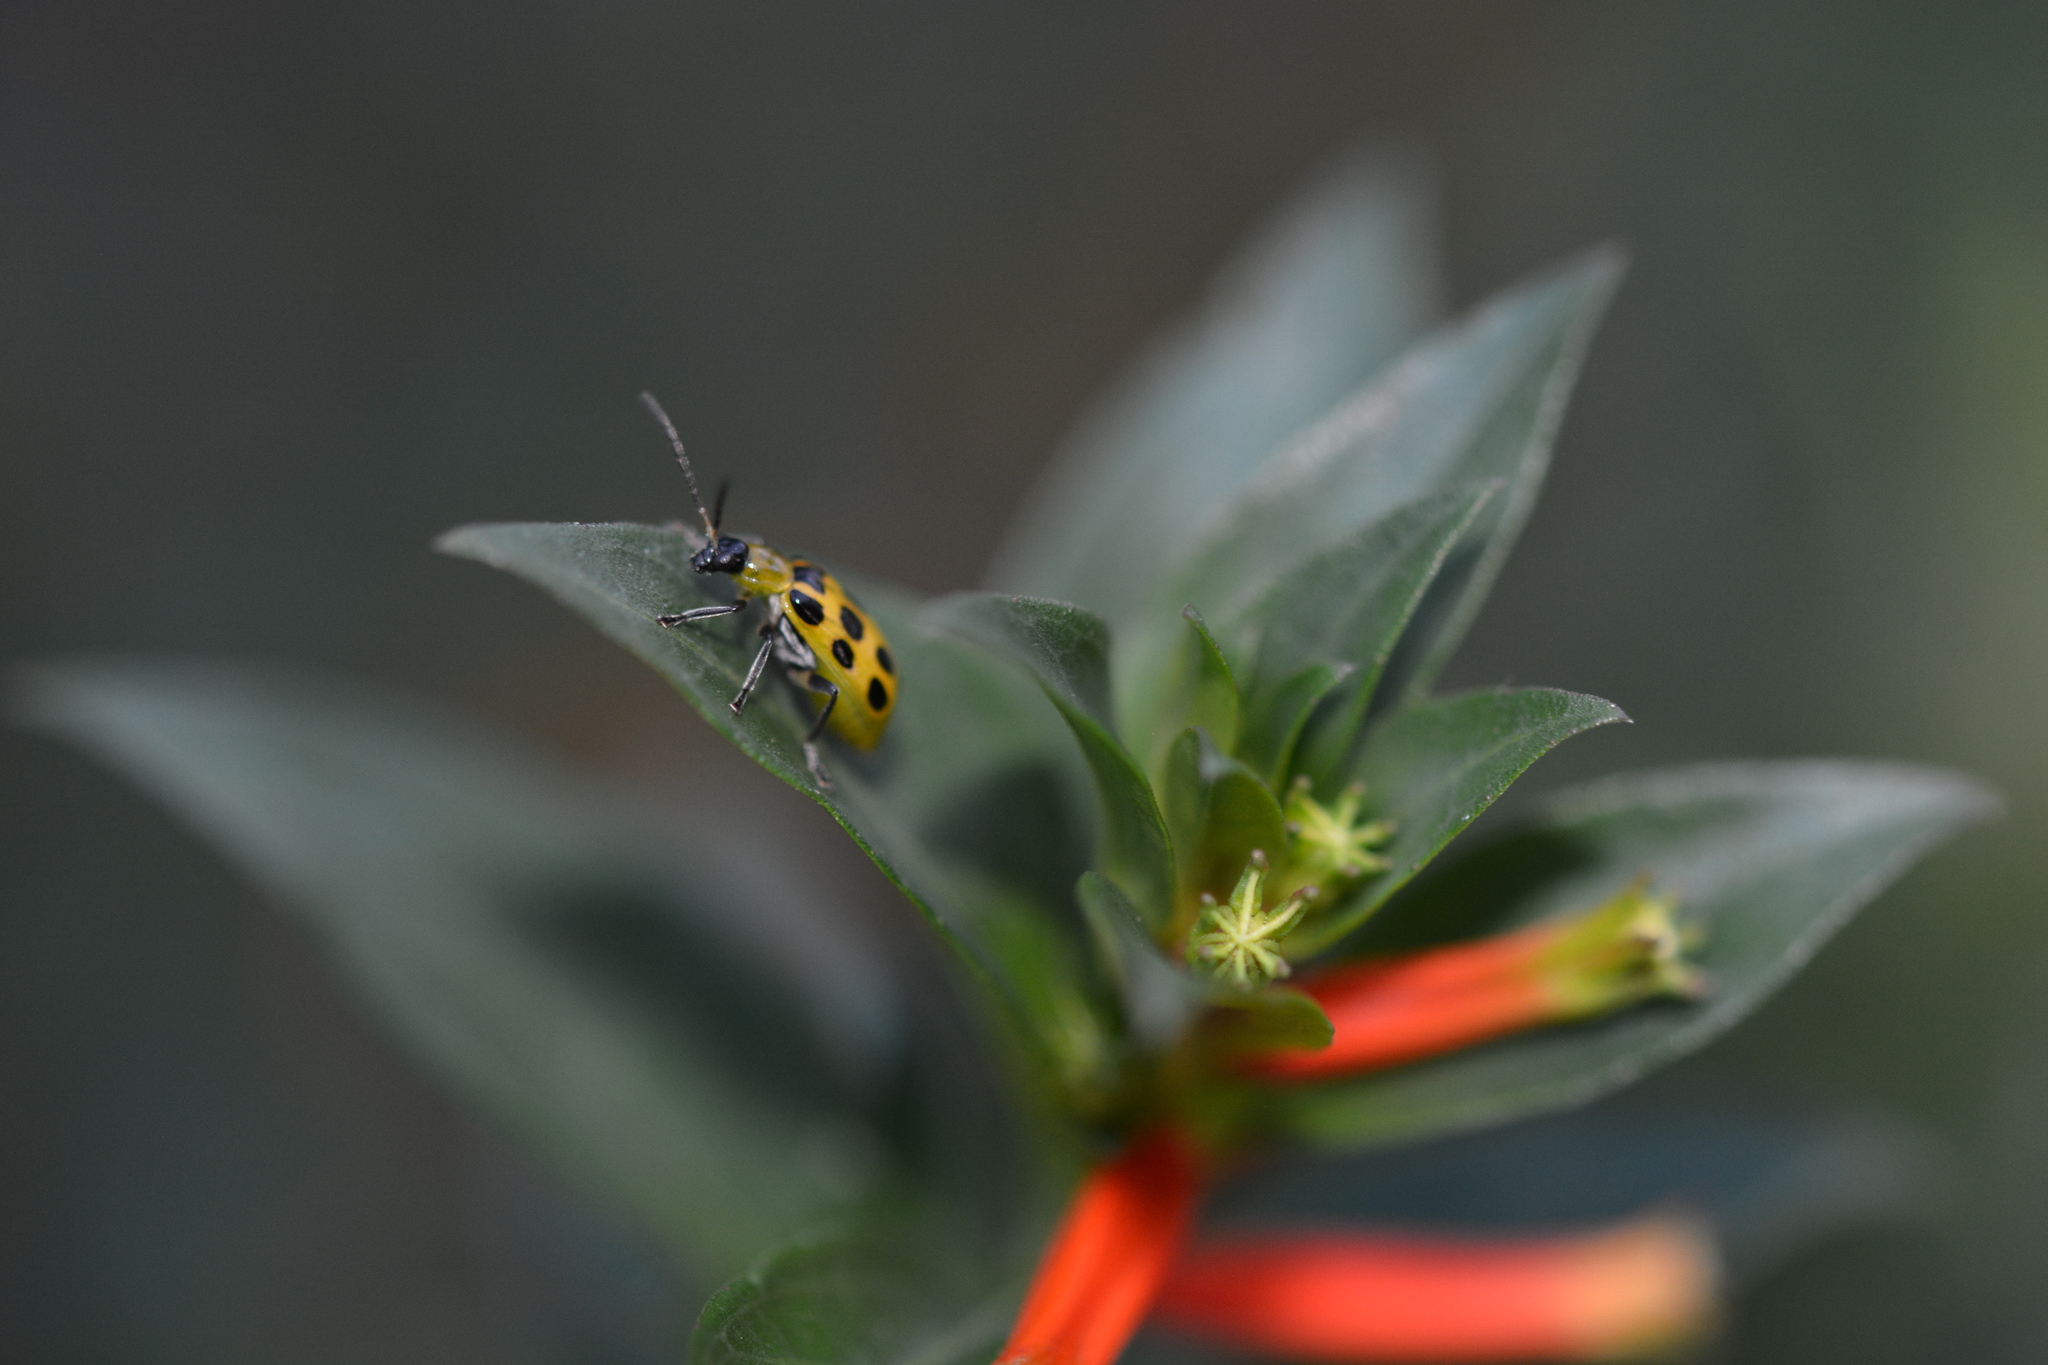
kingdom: Animalia
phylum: Arthropoda
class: Insecta
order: Coleoptera
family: Chrysomelidae
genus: Diabrotica
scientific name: Diabrotica undecimpunctata
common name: Spotted cucumber beetle
